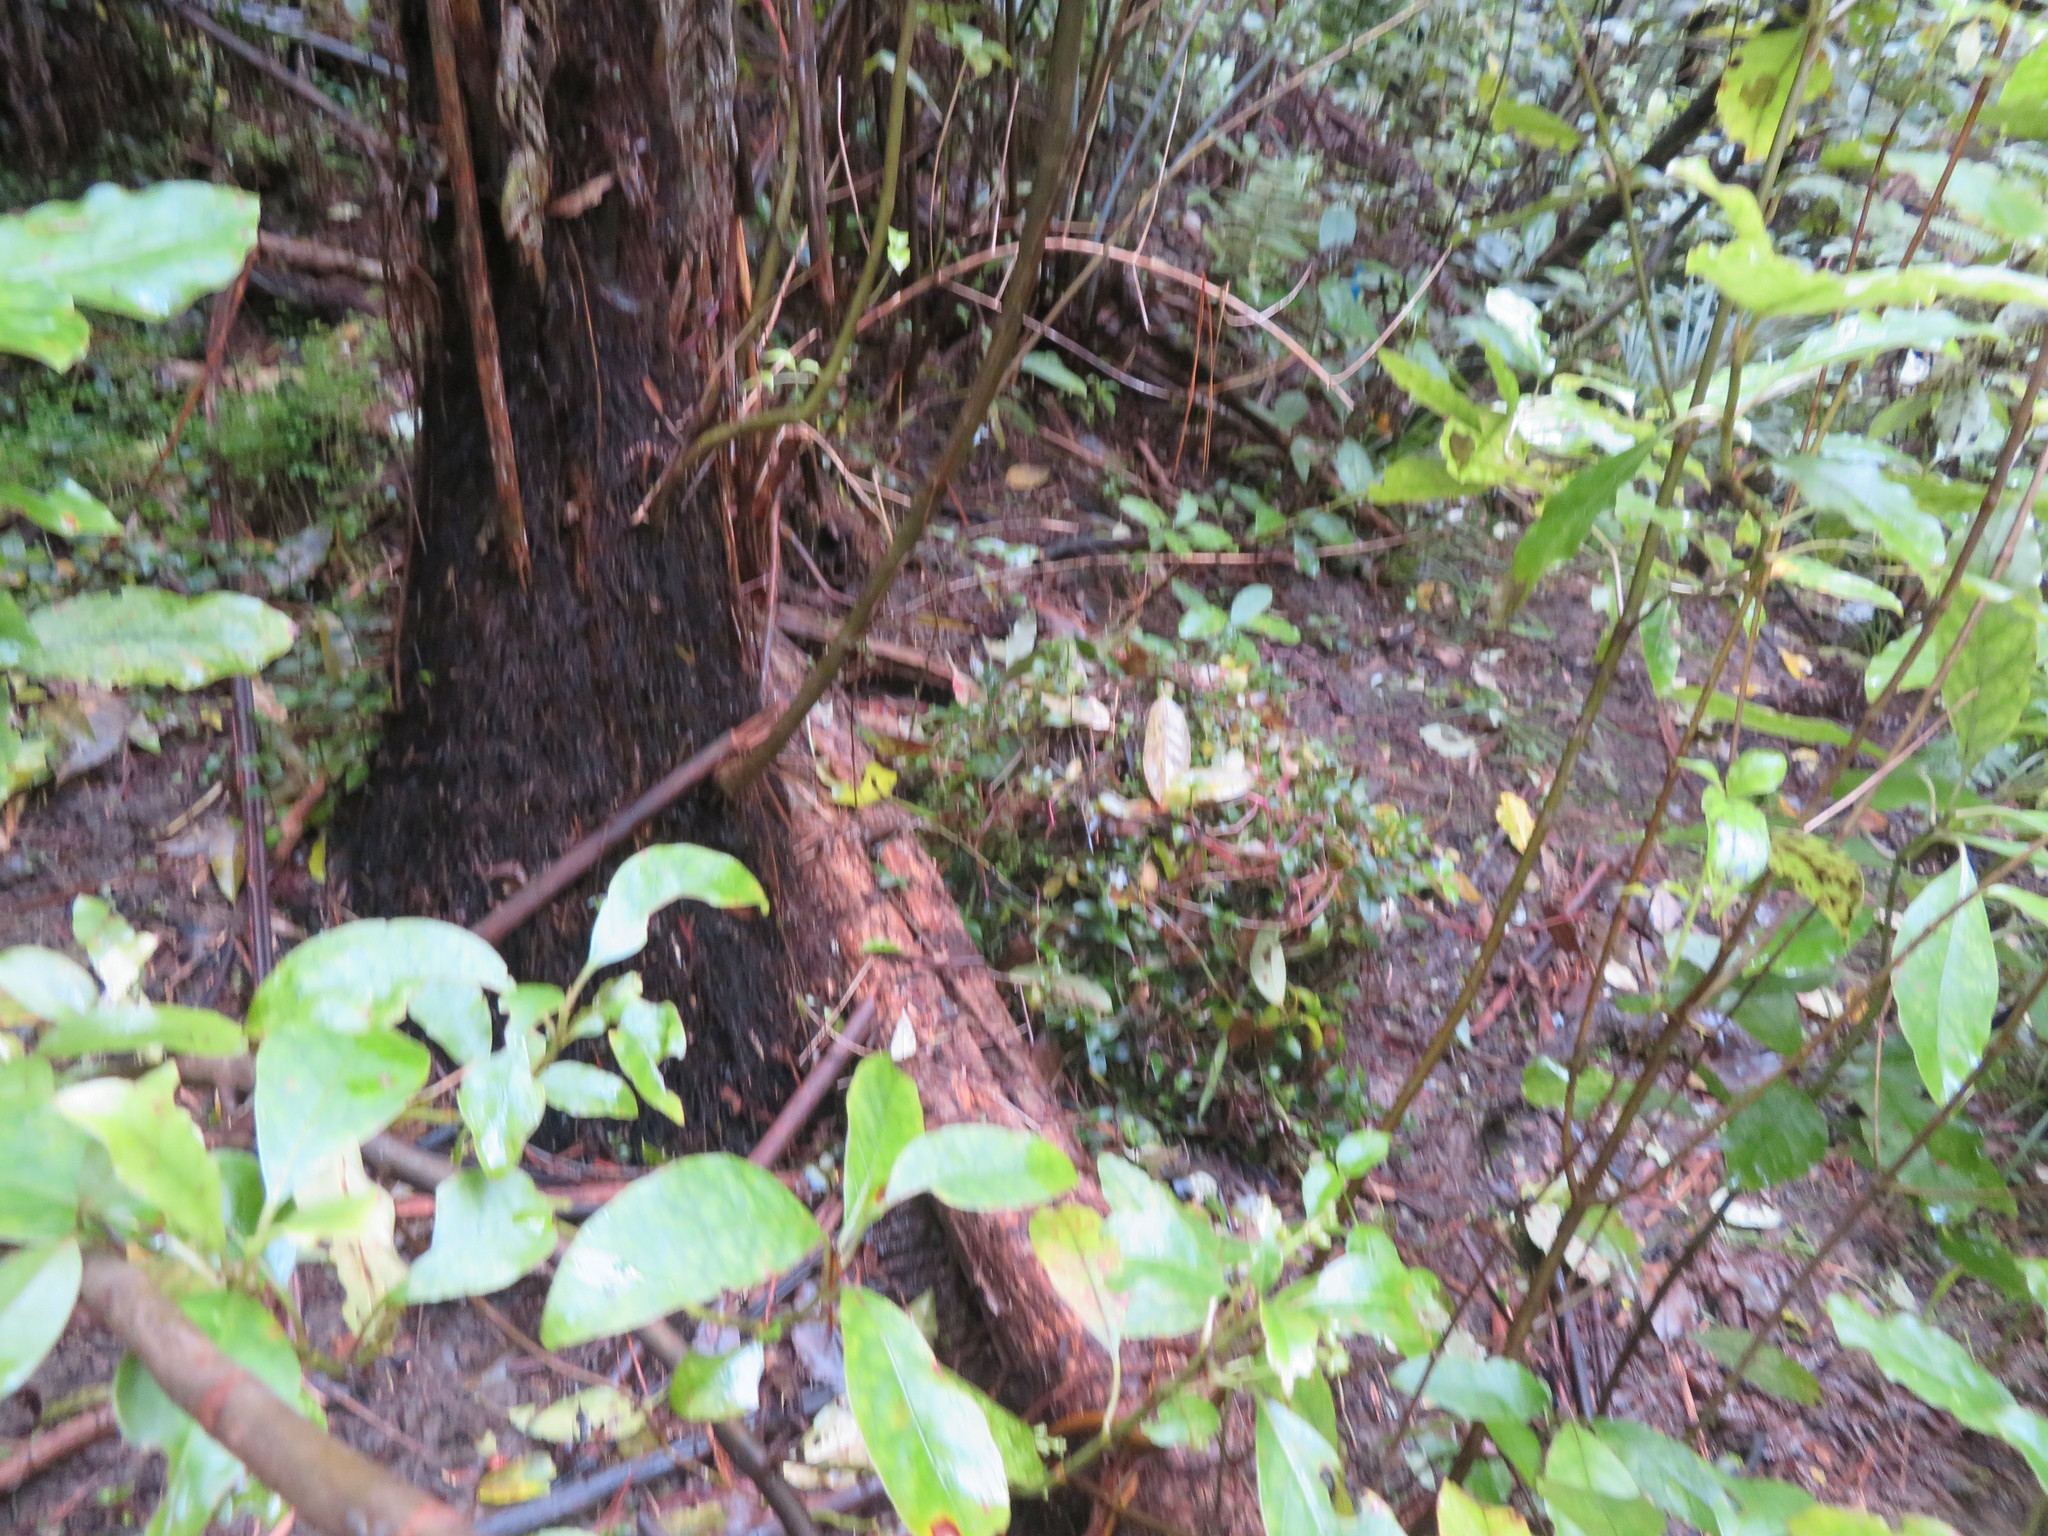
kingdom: Plantae
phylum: Tracheophyta
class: Magnoliopsida
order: Gentianales
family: Rubiaceae
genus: Coprosma
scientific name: Coprosma autumnalis
